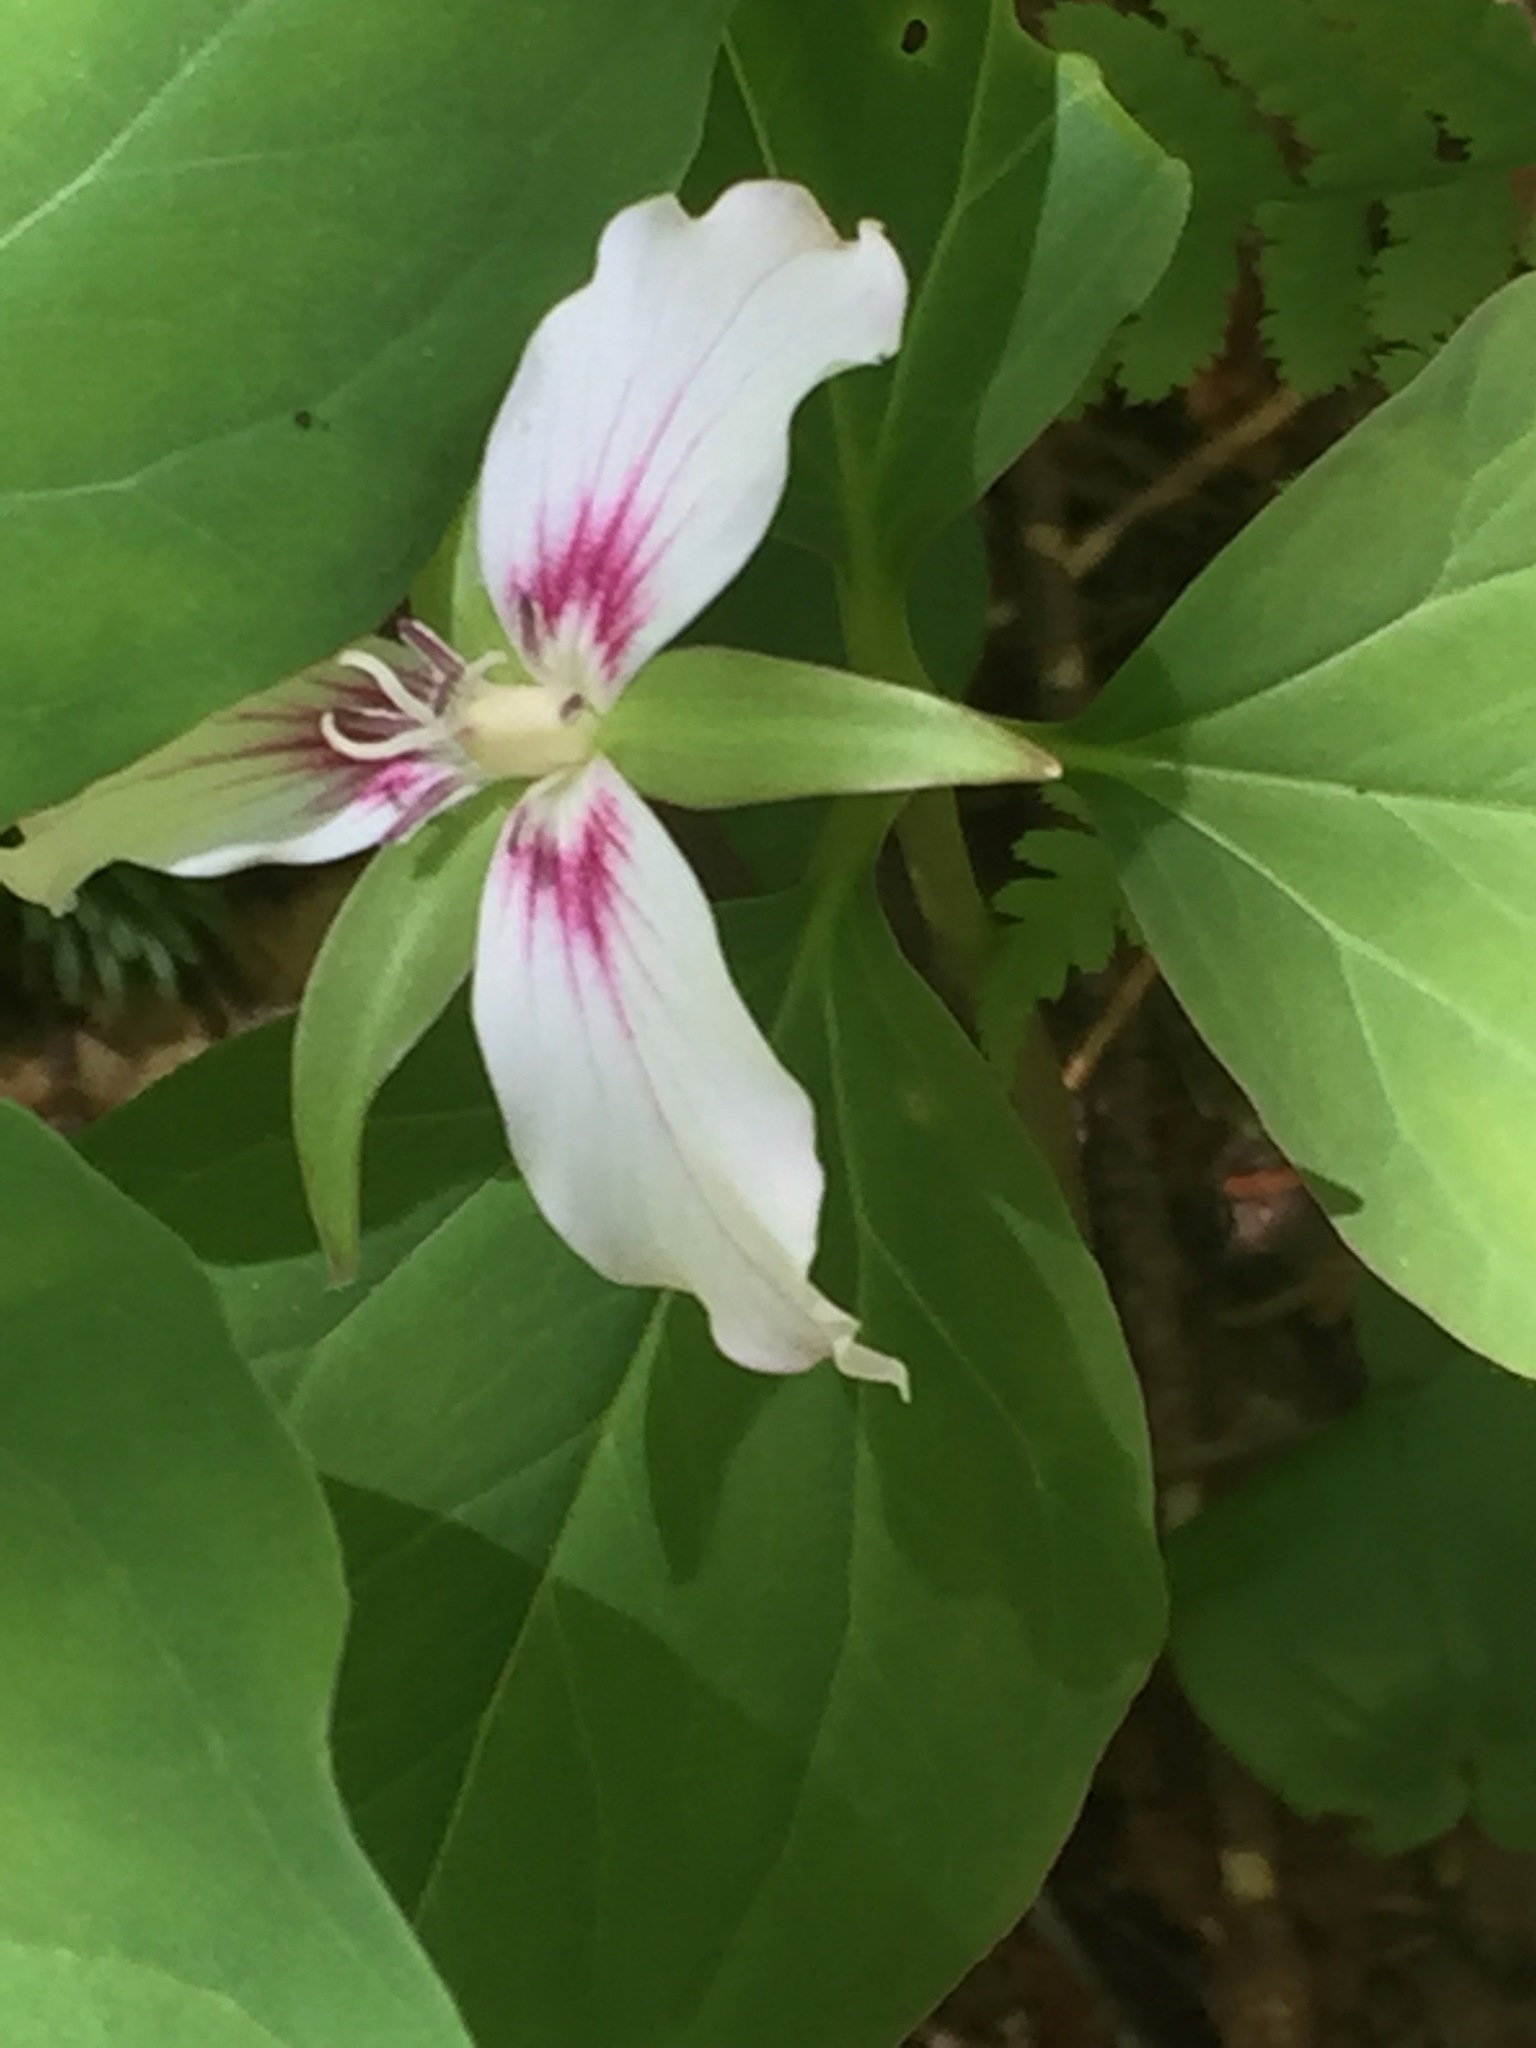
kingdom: Plantae
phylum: Tracheophyta
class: Liliopsida
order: Liliales
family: Melanthiaceae
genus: Trillium
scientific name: Trillium undulatum
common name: Paint trillium
